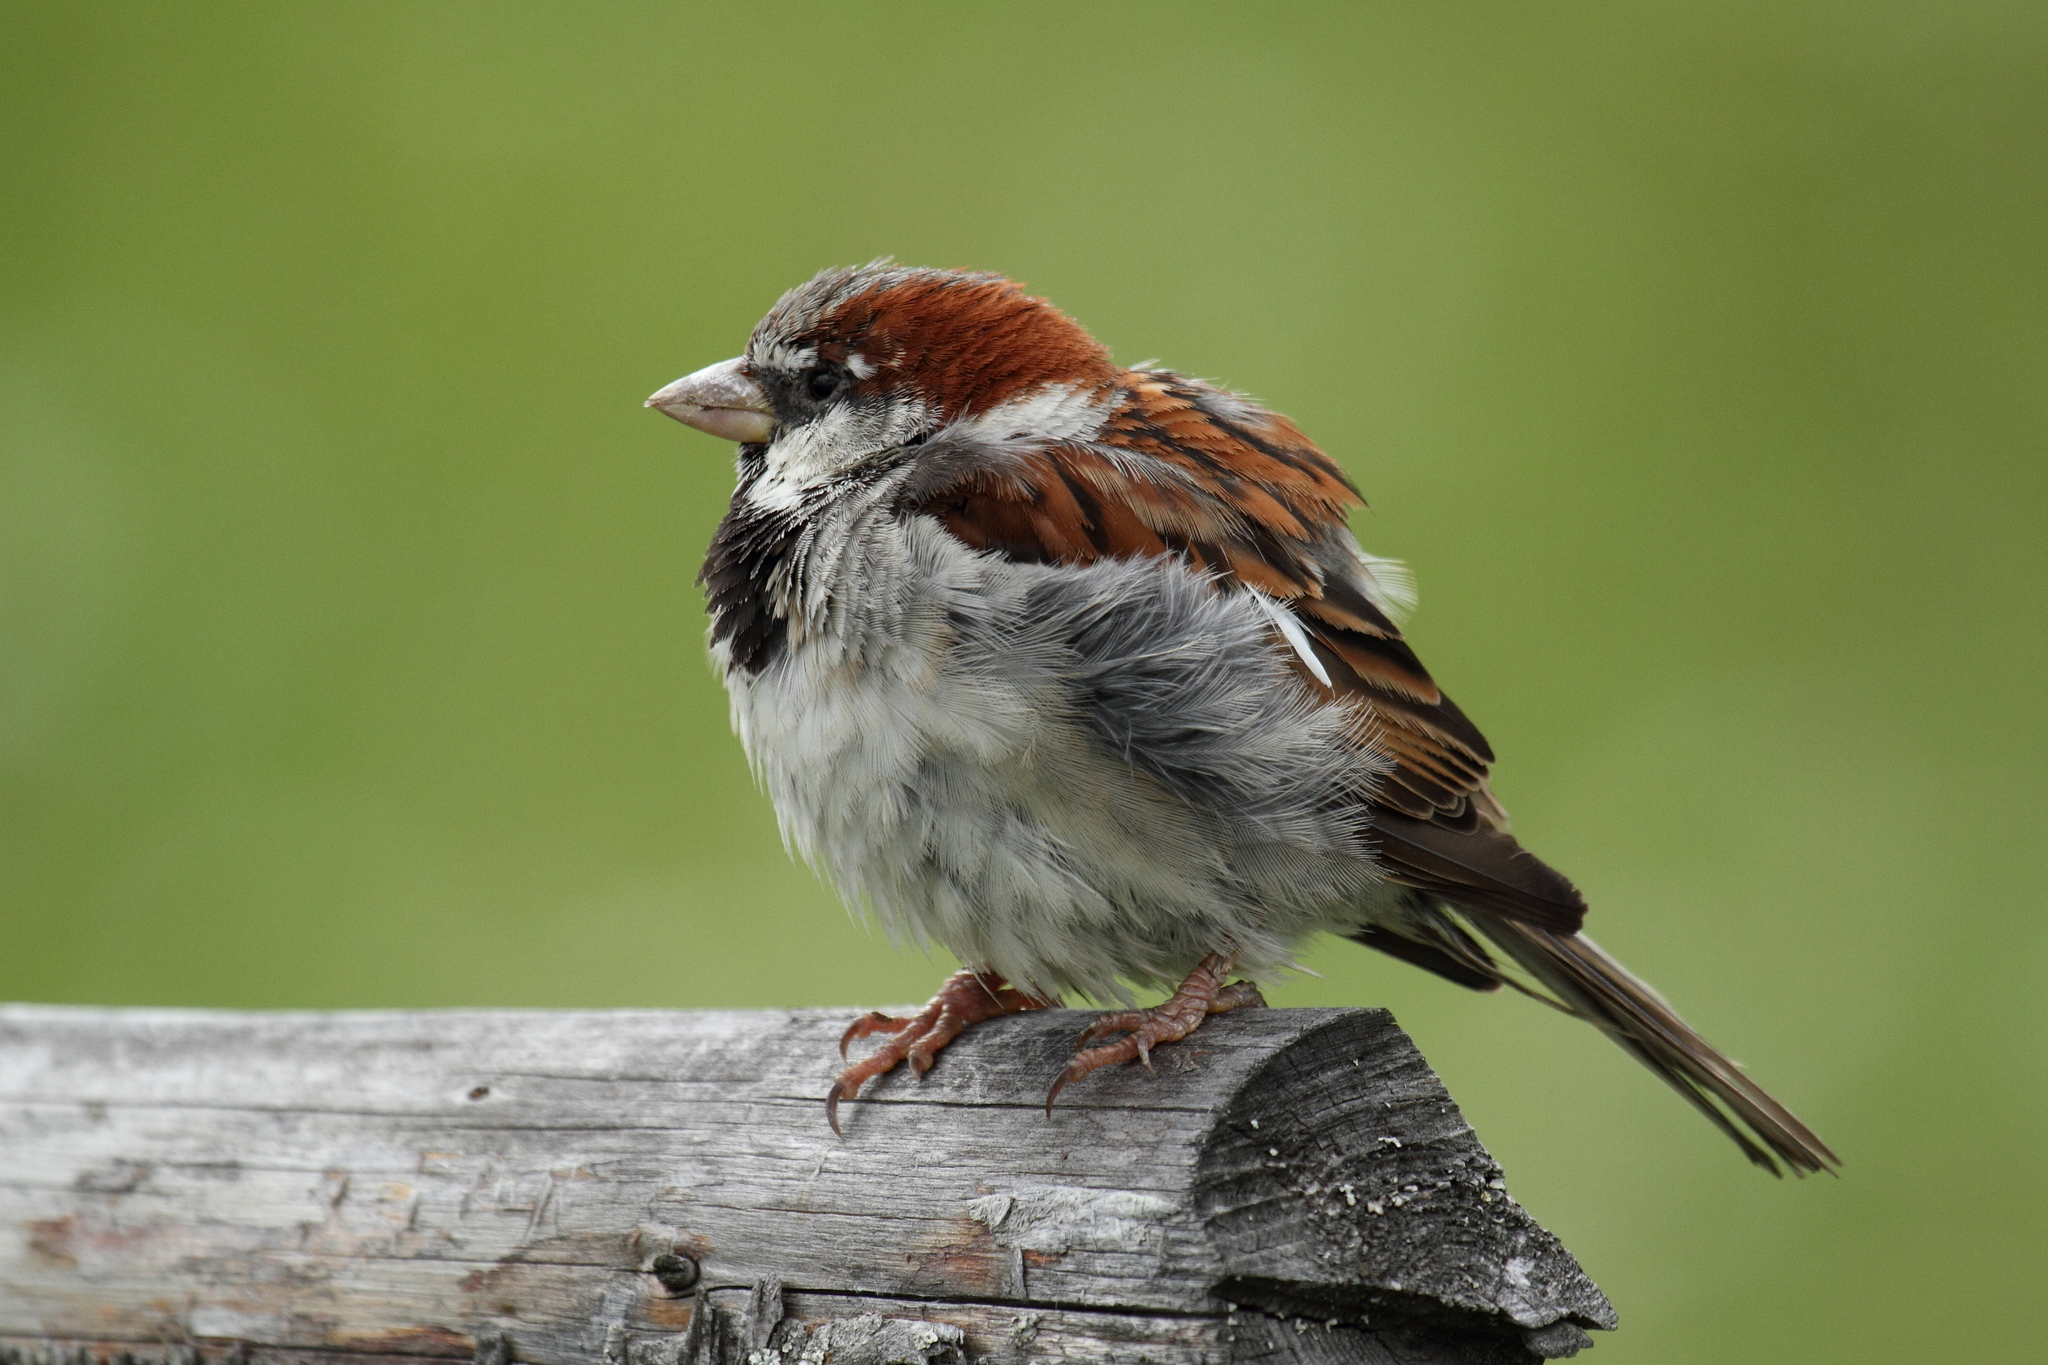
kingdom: Animalia
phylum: Chordata
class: Aves
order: Passeriformes
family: Passeridae
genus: Passer
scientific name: Passer domesticus
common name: House sparrow
